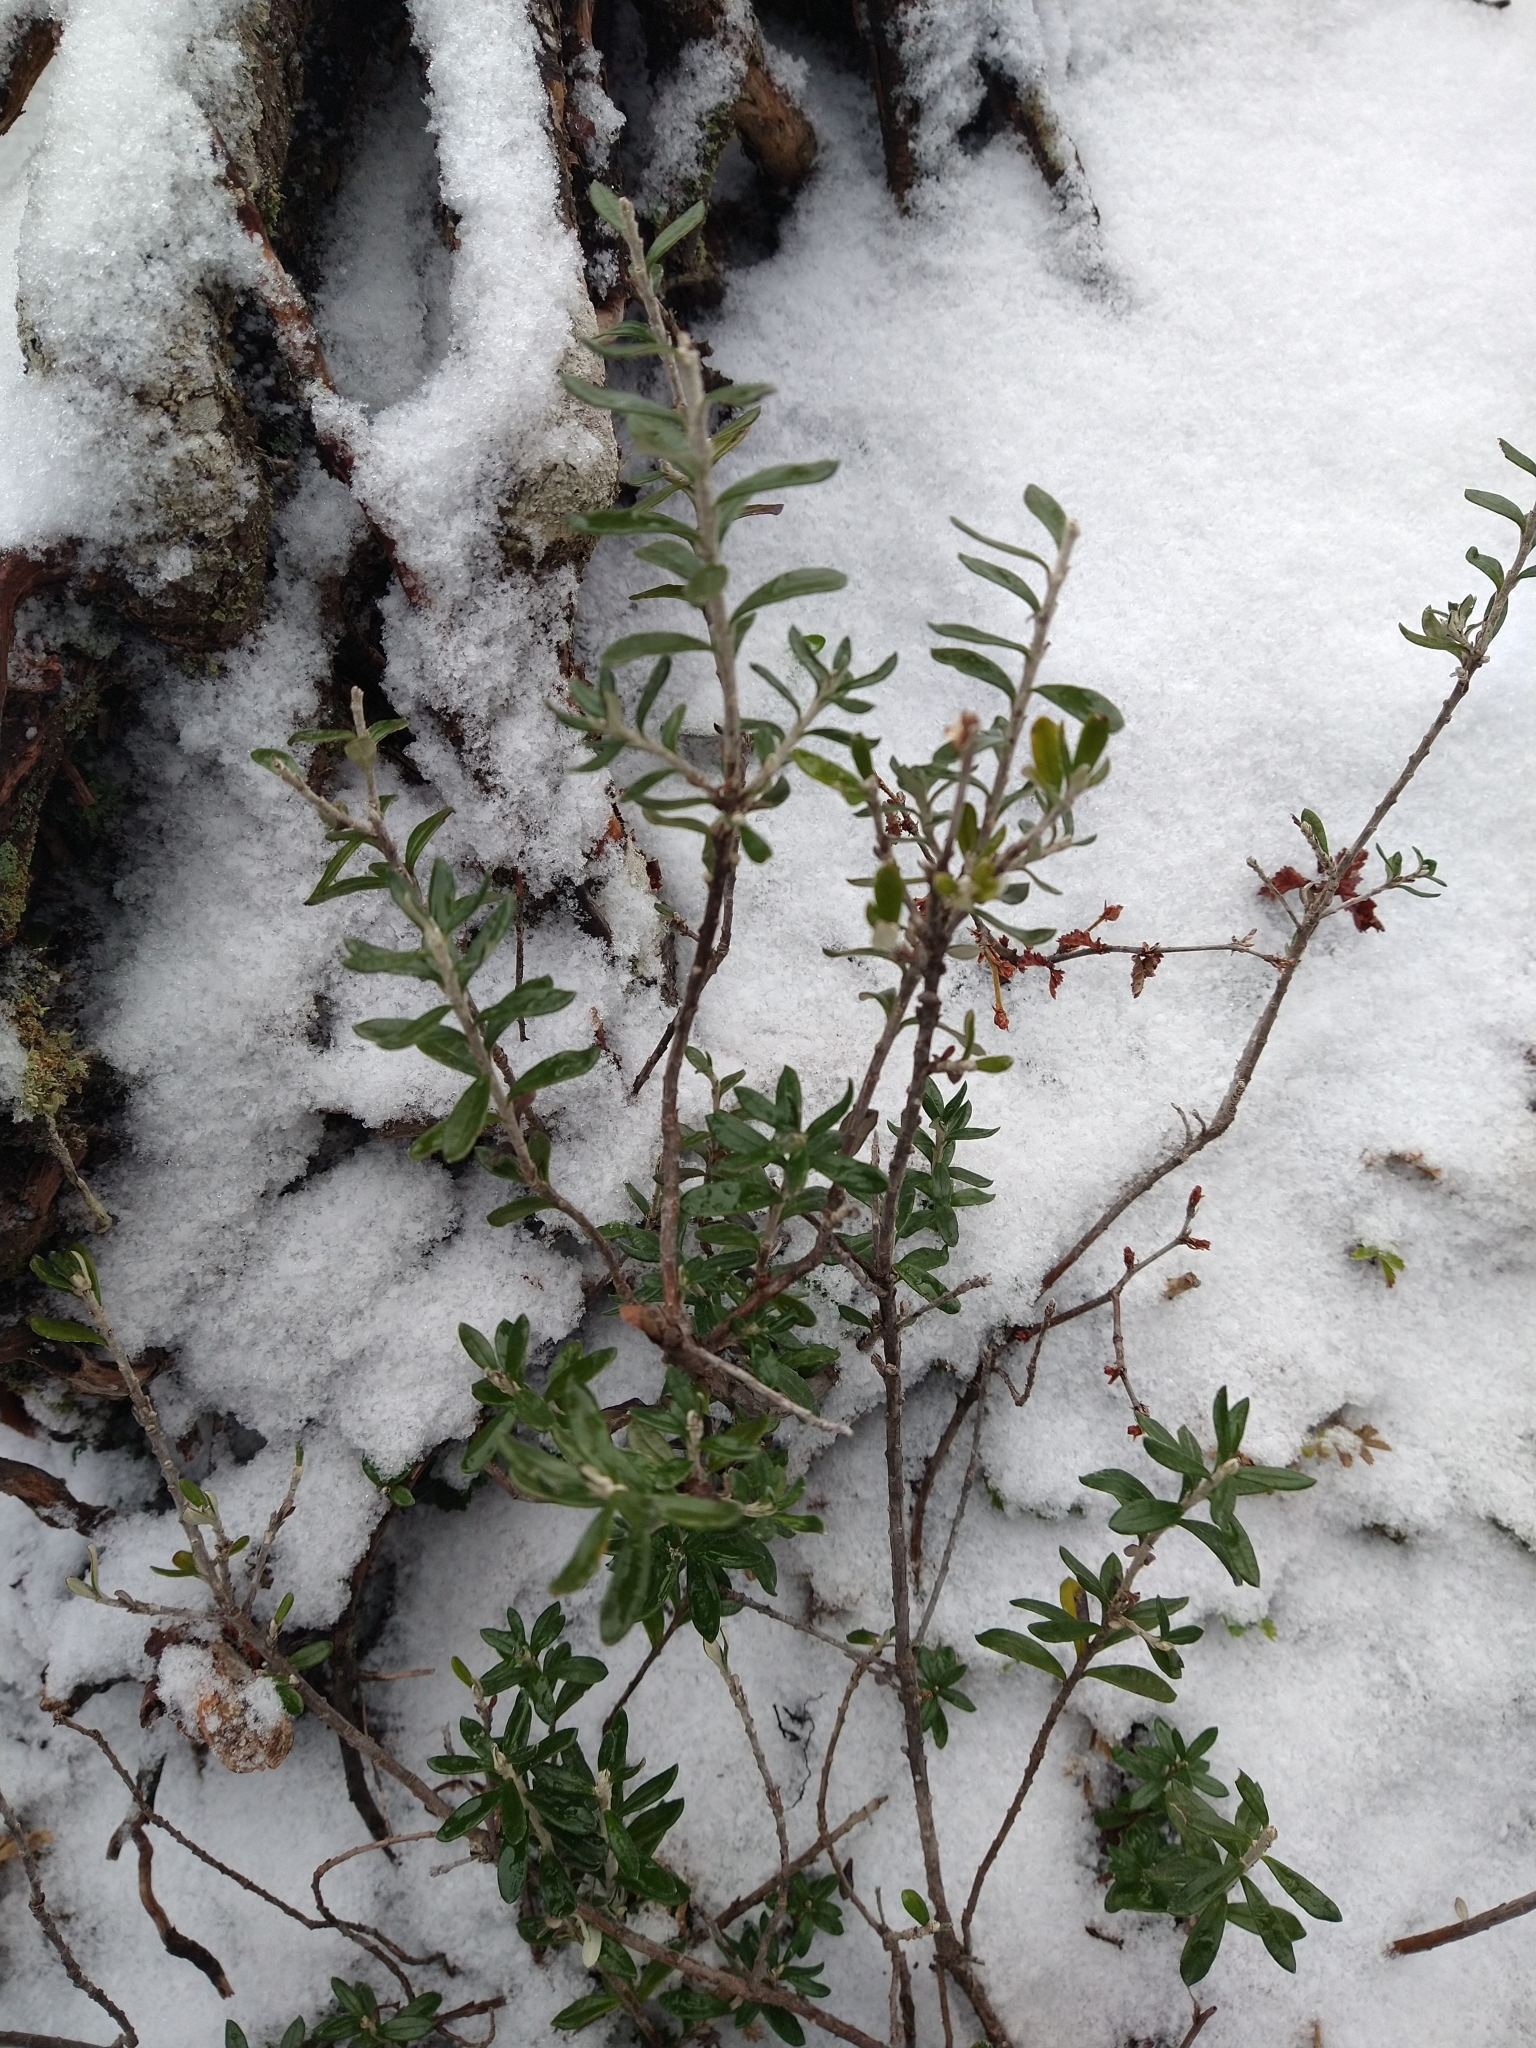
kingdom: Plantae
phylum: Tracheophyta
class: Magnoliopsida
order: Asterales
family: Asteraceae
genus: Chiliotrichum
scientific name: Chiliotrichum diffusum
